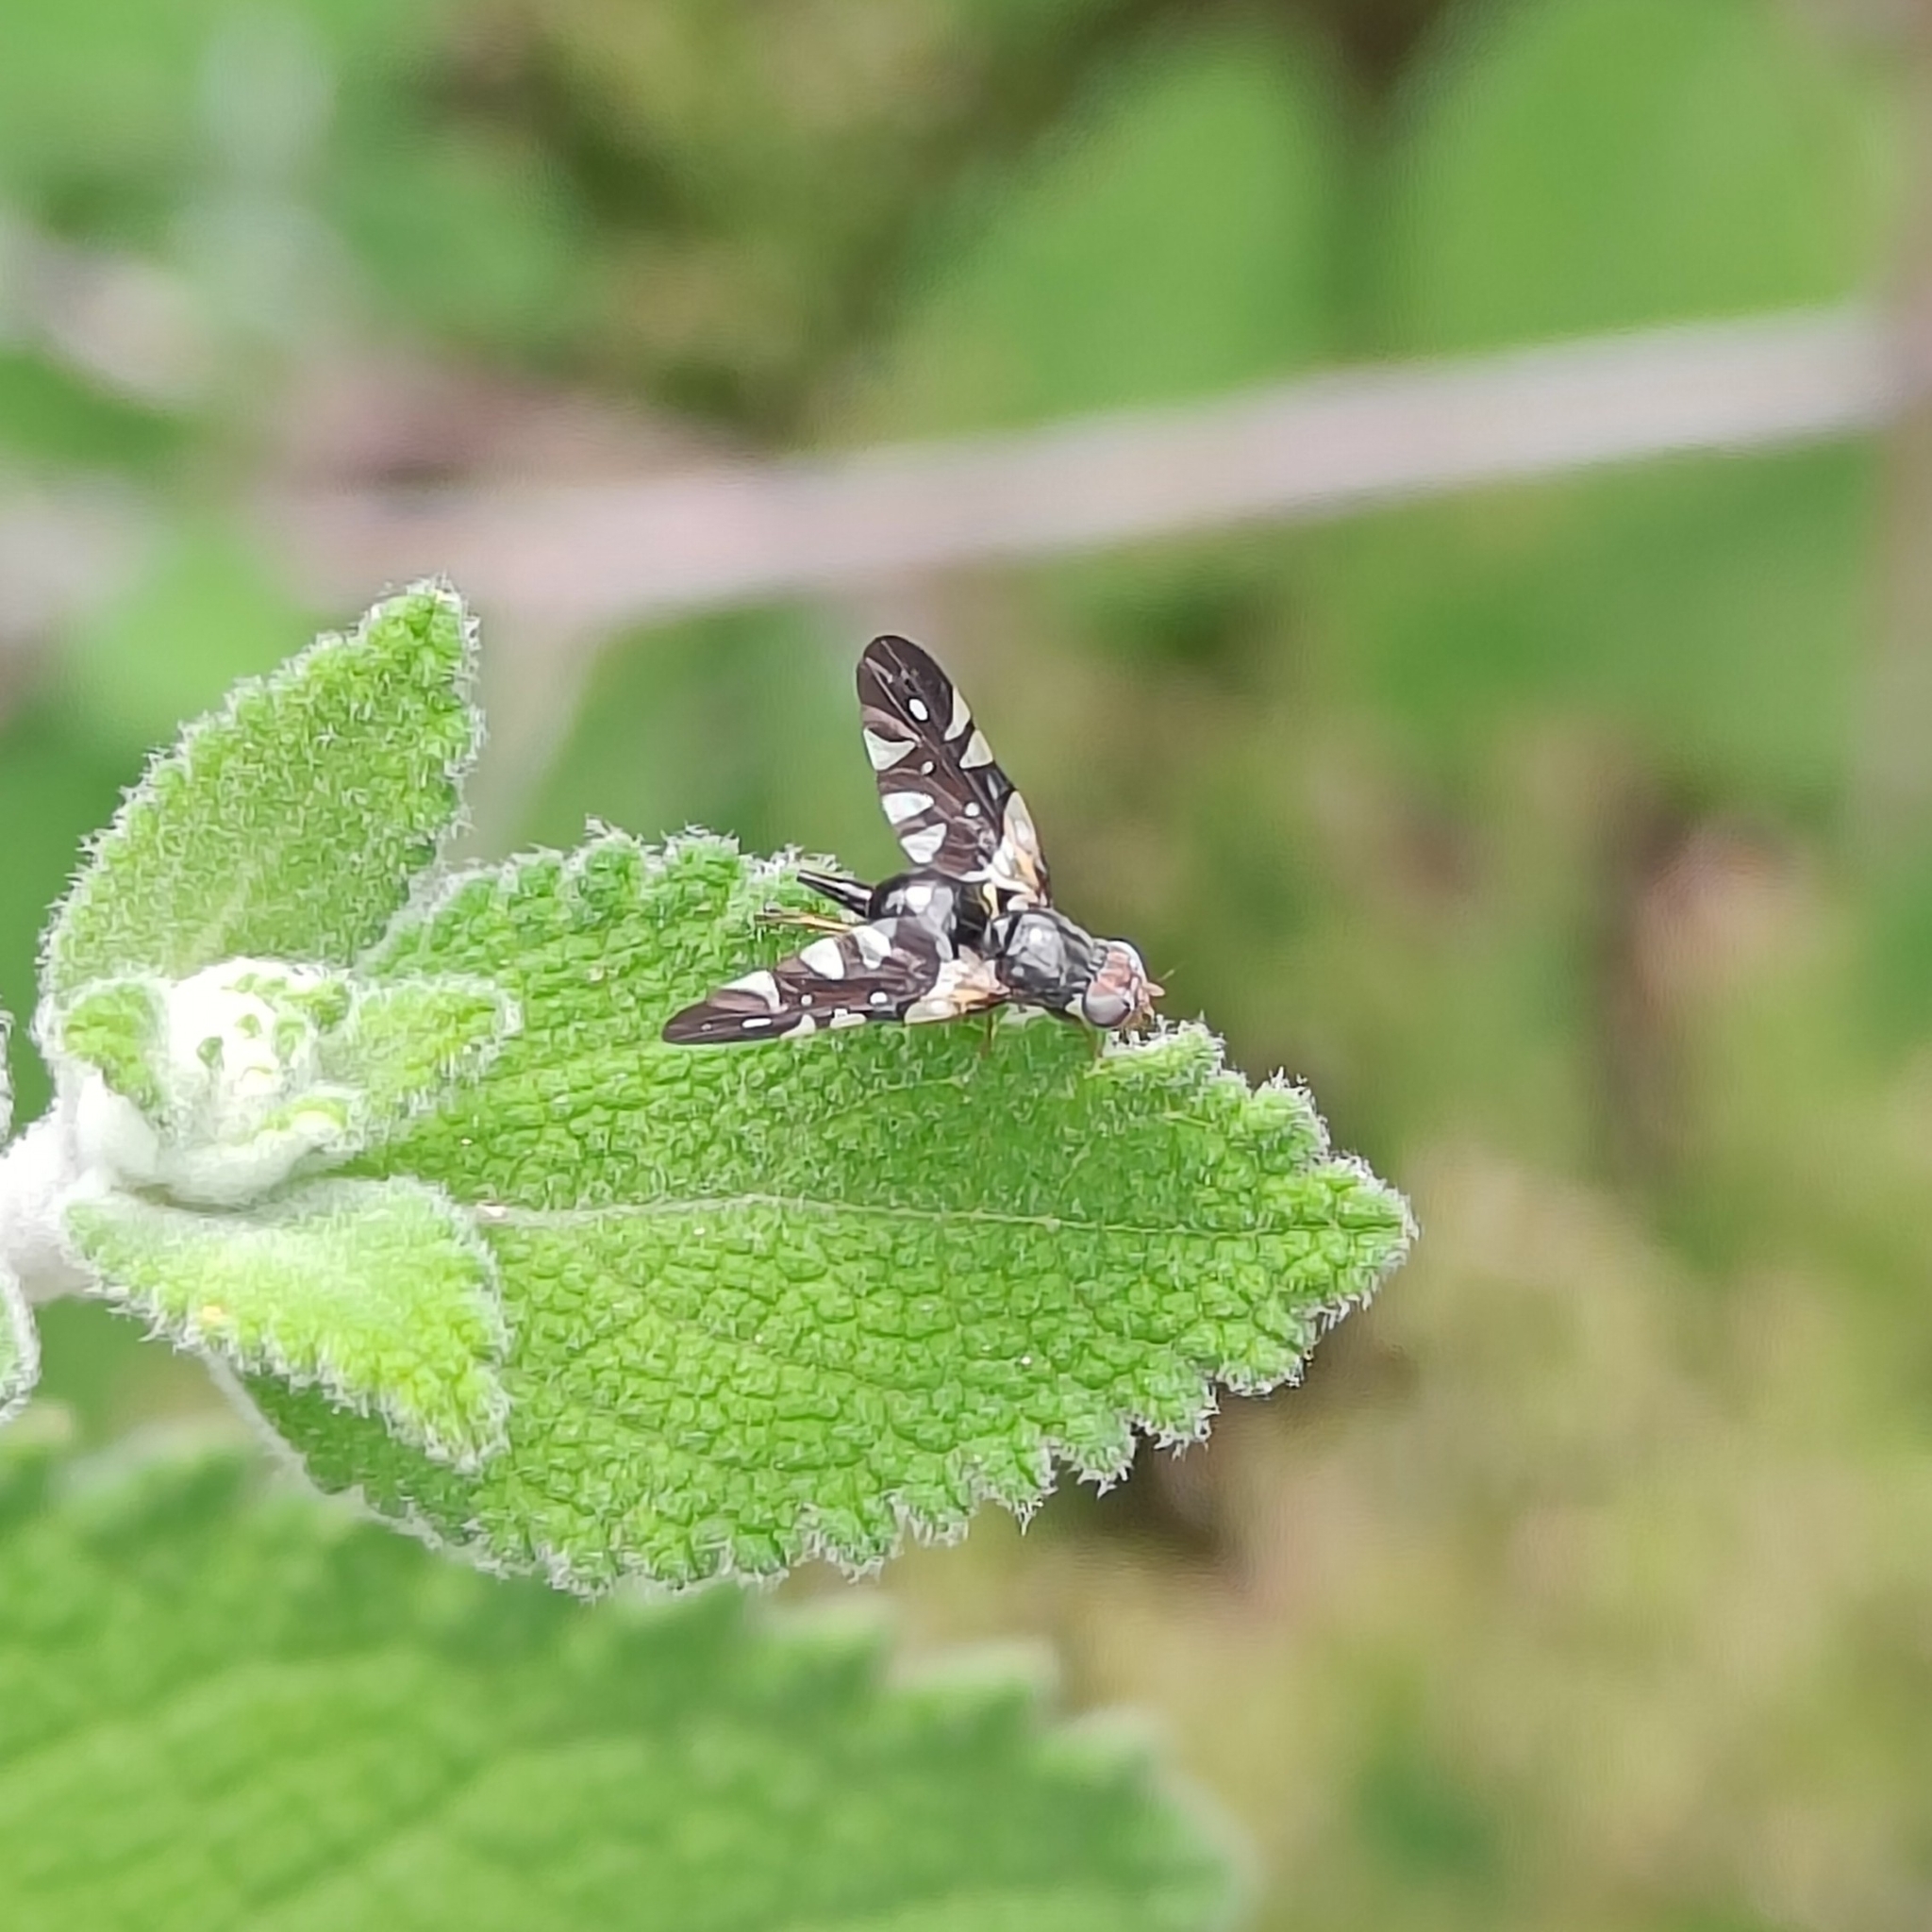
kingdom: Animalia
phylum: Arthropoda
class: Insecta
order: Diptera
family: Tephritidae
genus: Aciura
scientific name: Aciura afghana
